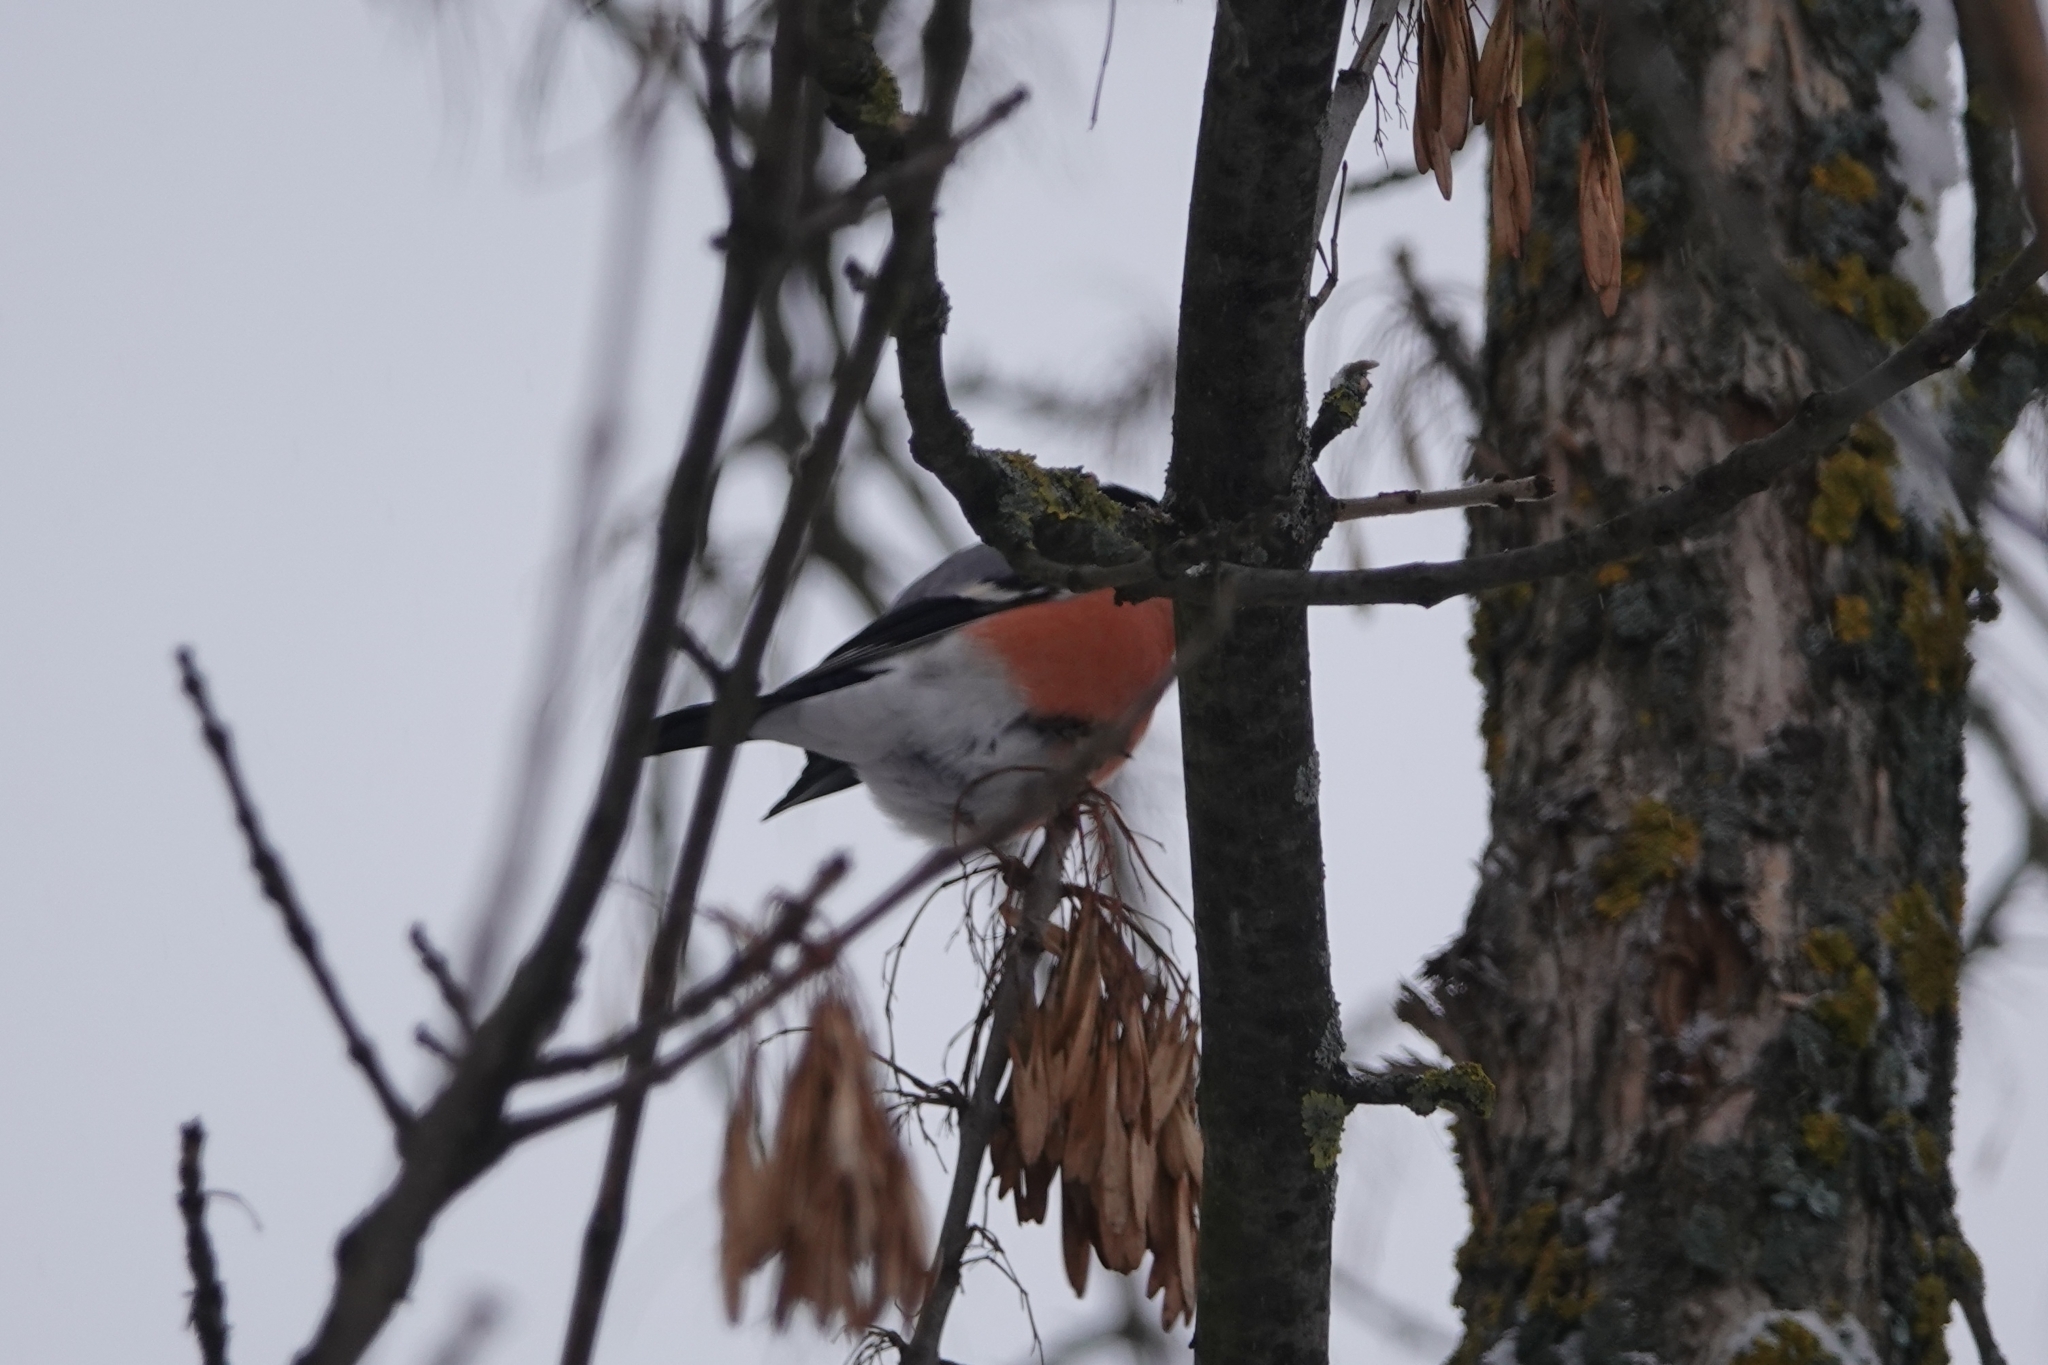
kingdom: Animalia
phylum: Chordata
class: Aves
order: Passeriformes
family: Fringillidae
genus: Pyrrhula
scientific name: Pyrrhula pyrrhula
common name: Eurasian bullfinch
